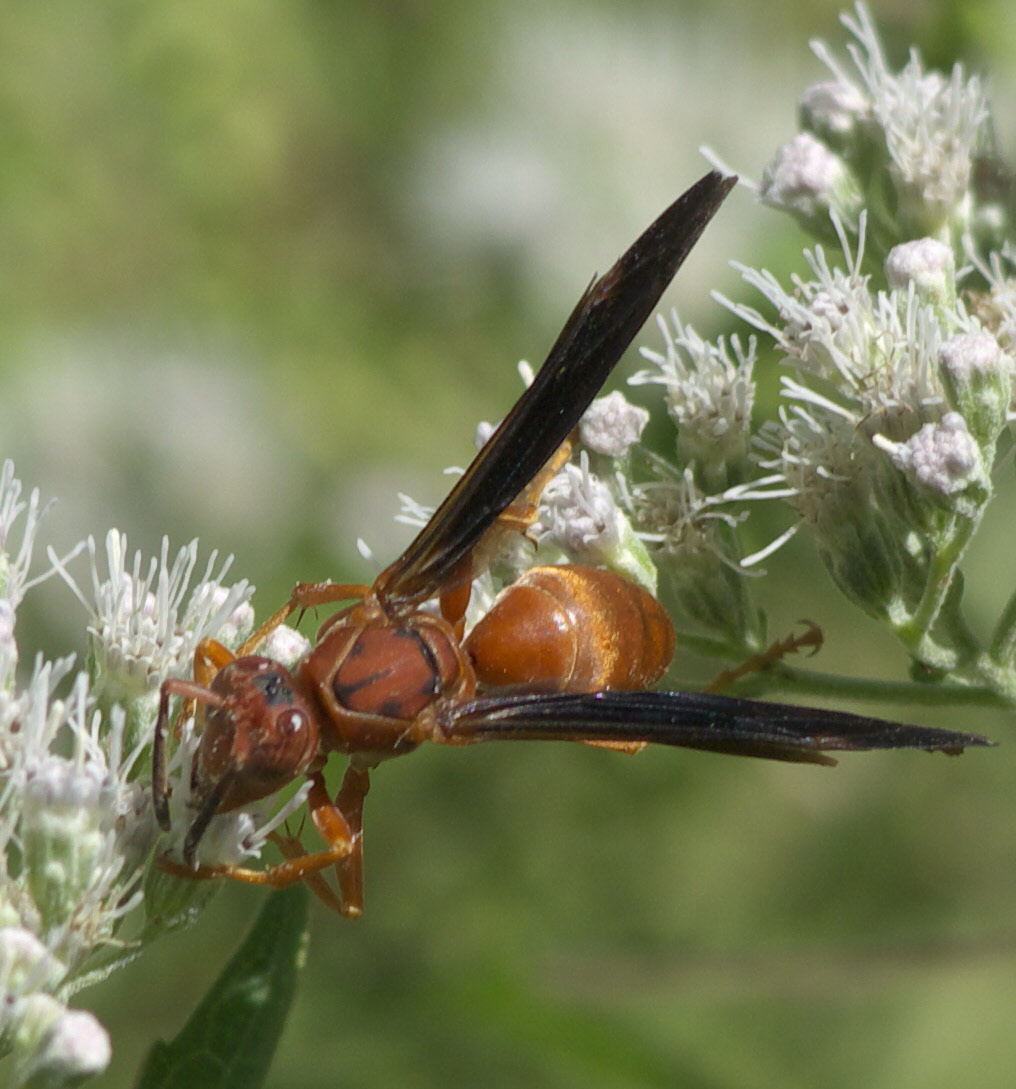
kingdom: Animalia
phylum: Arthropoda
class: Insecta
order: Hymenoptera
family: Vespidae
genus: Fuscopolistes
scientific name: Fuscopolistes
